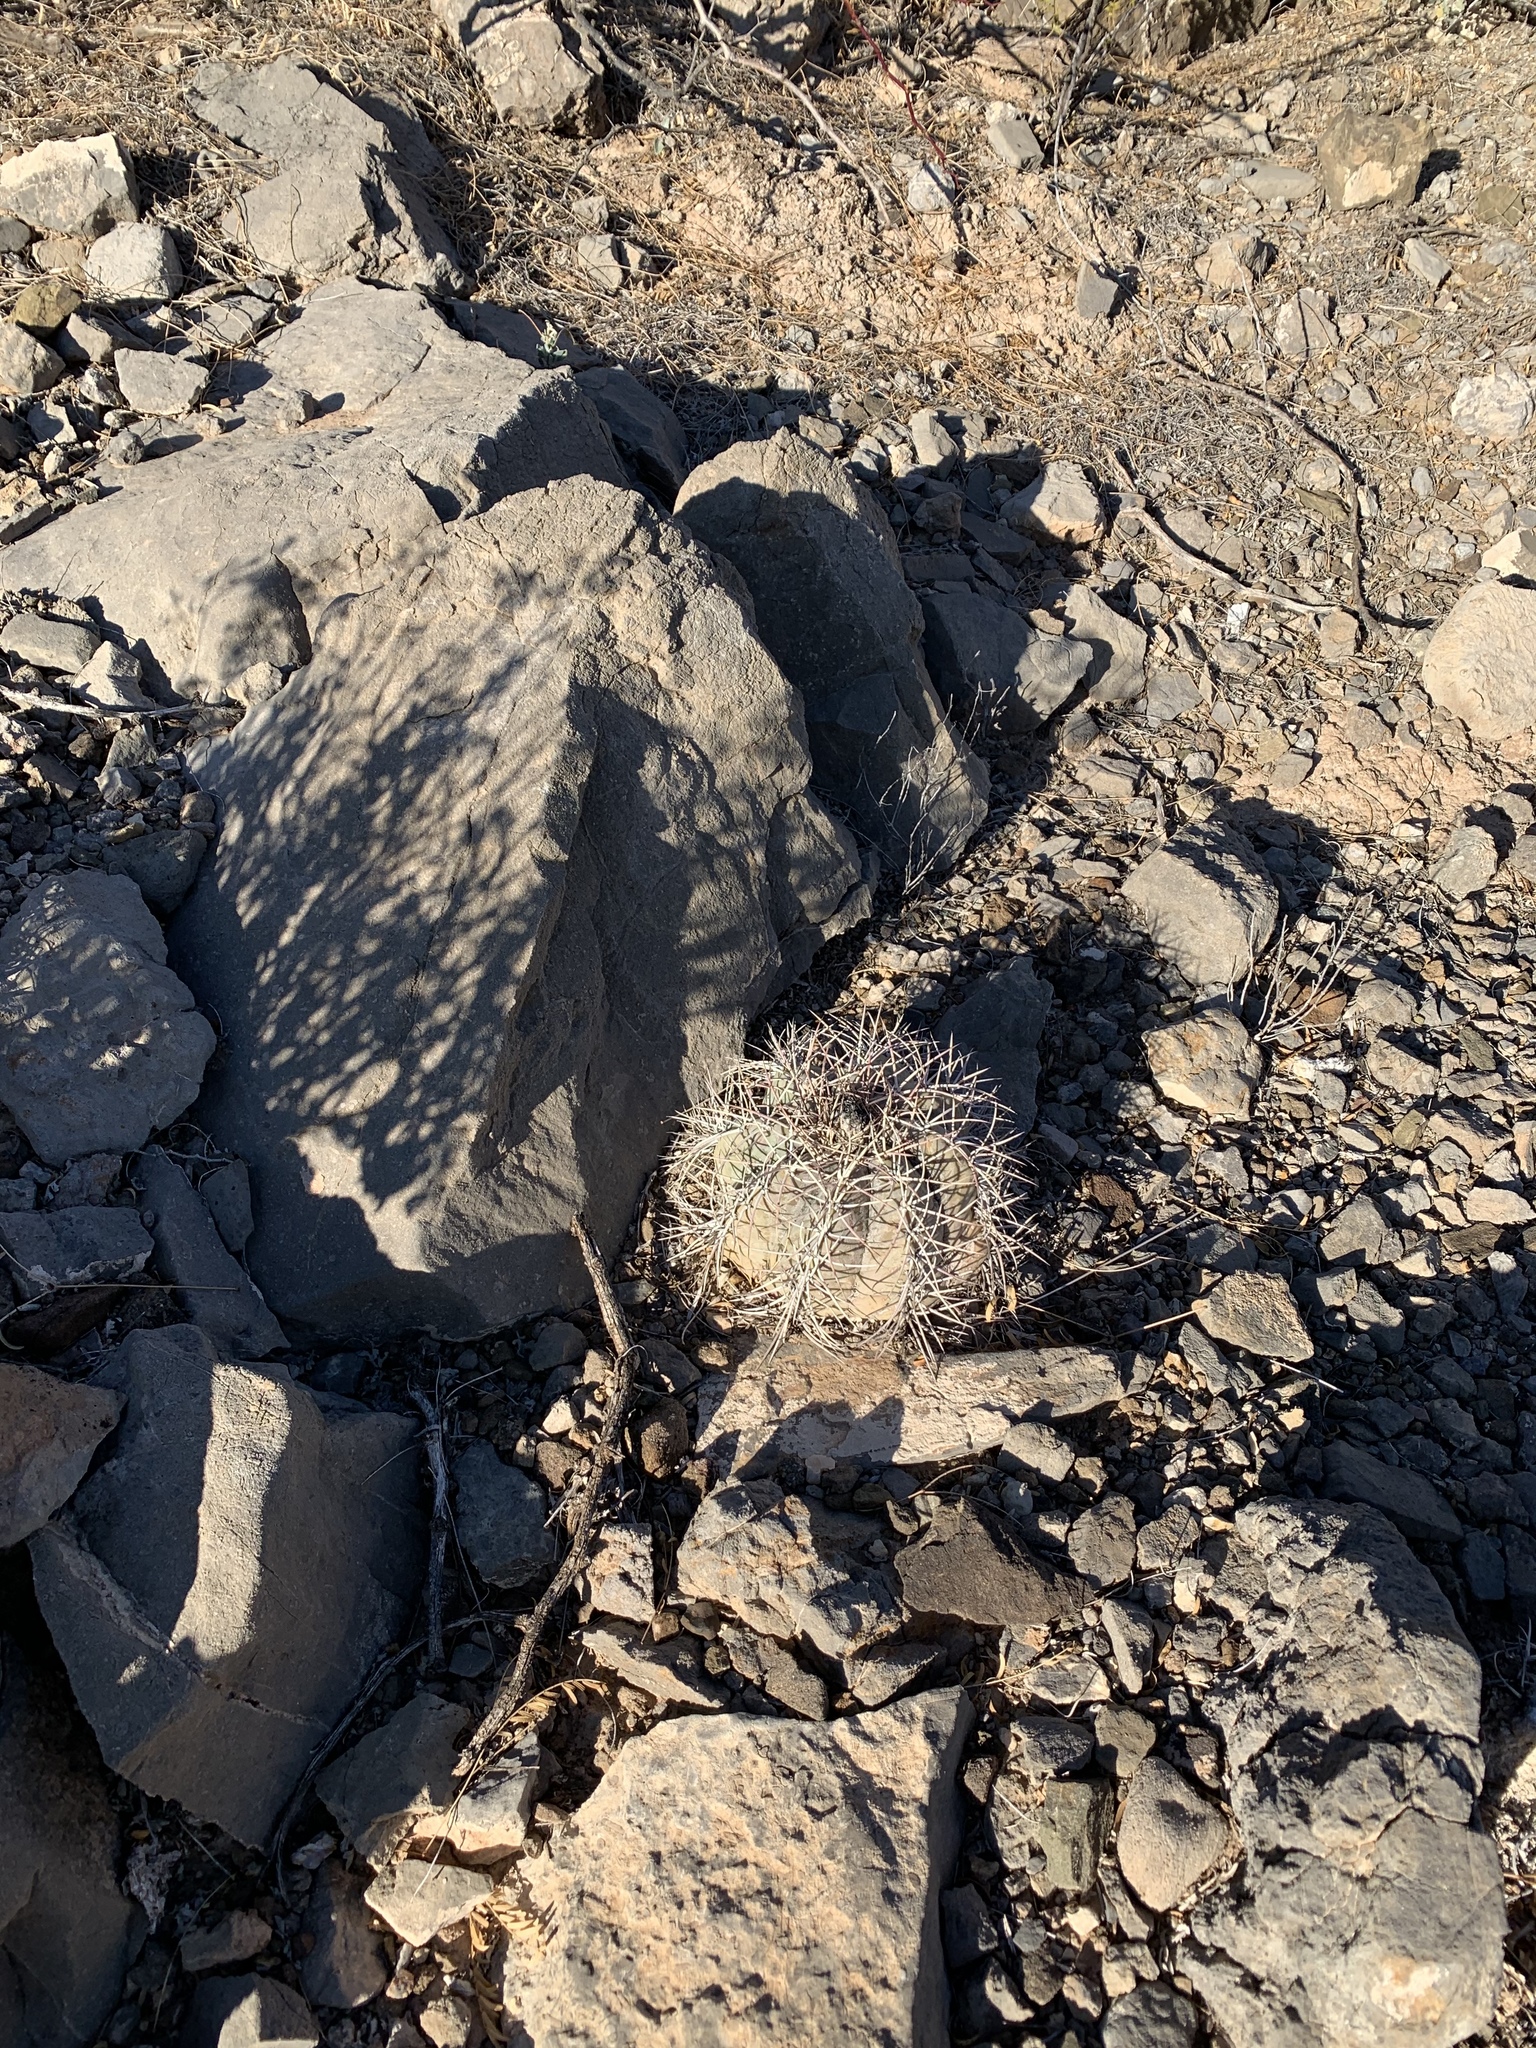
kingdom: Plantae
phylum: Tracheophyta
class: Magnoliopsida
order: Caryophyllales
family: Cactaceae
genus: Echinocactus
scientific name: Echinocactus horizonthalonius
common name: Devilshead
